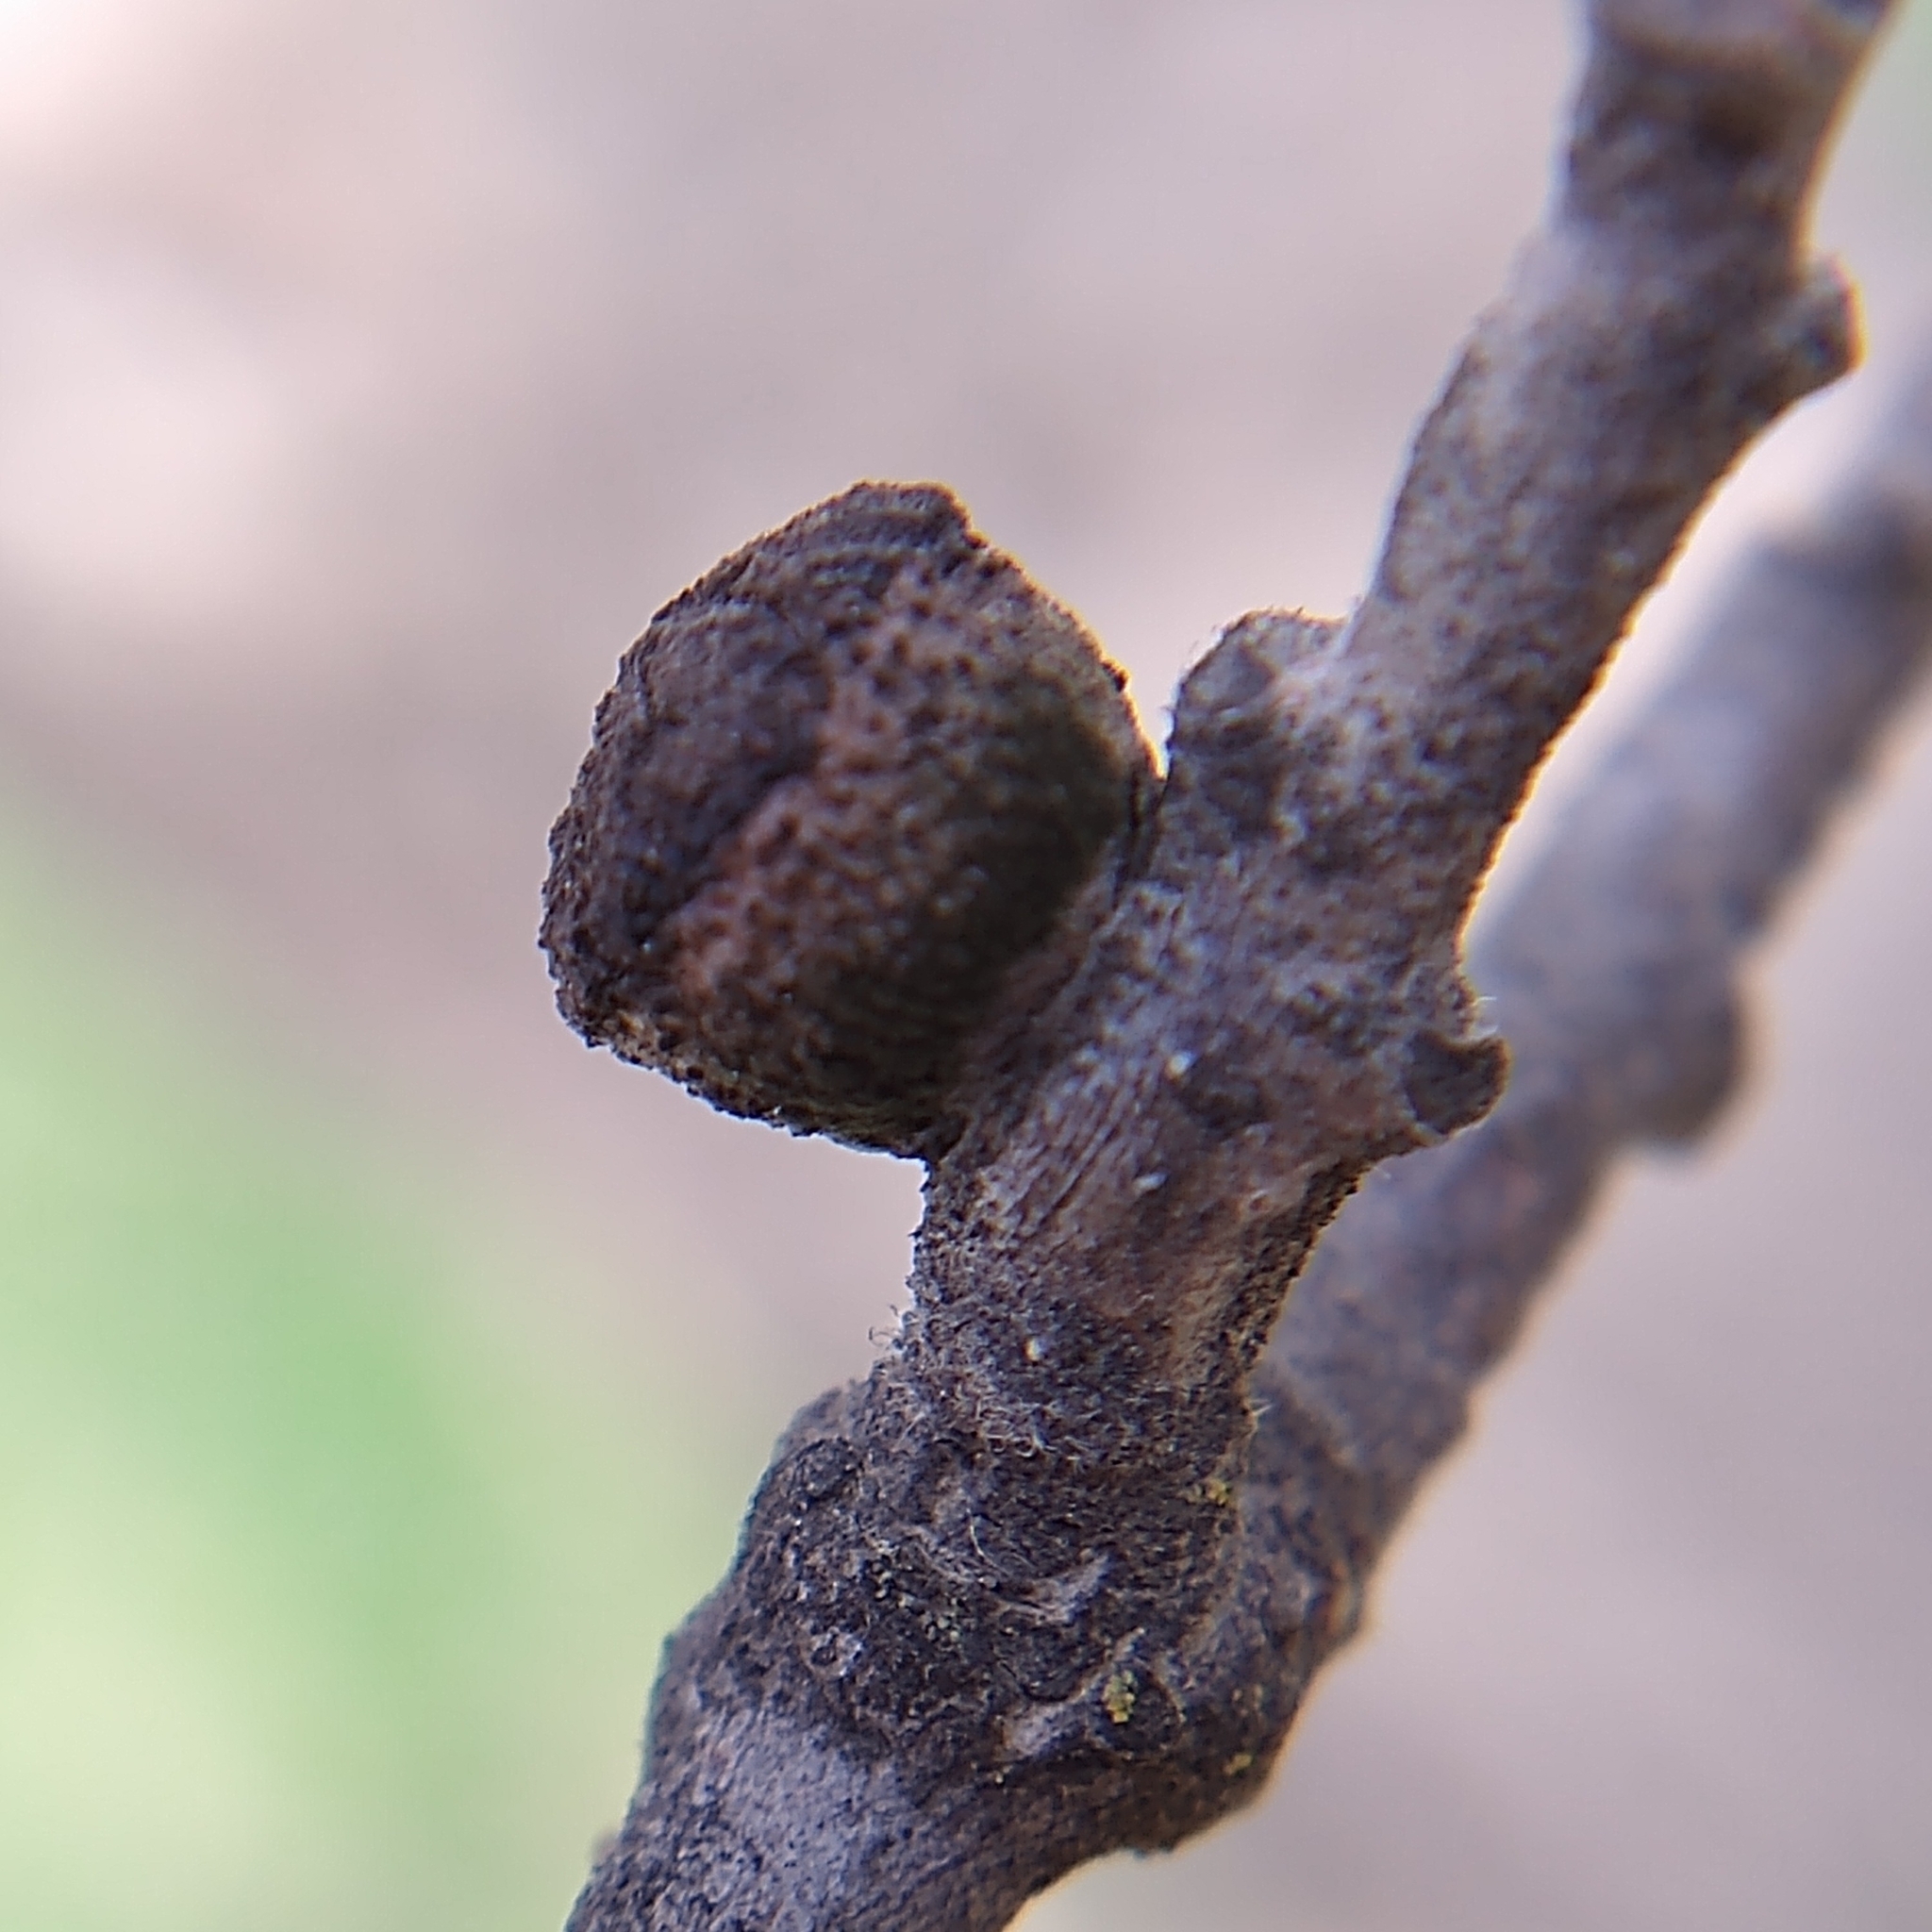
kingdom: Animalia
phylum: Arthropoda
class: Insecta
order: Hymenoptera
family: Cynipidae
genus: Disholcaspis
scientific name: Disholcaspis
